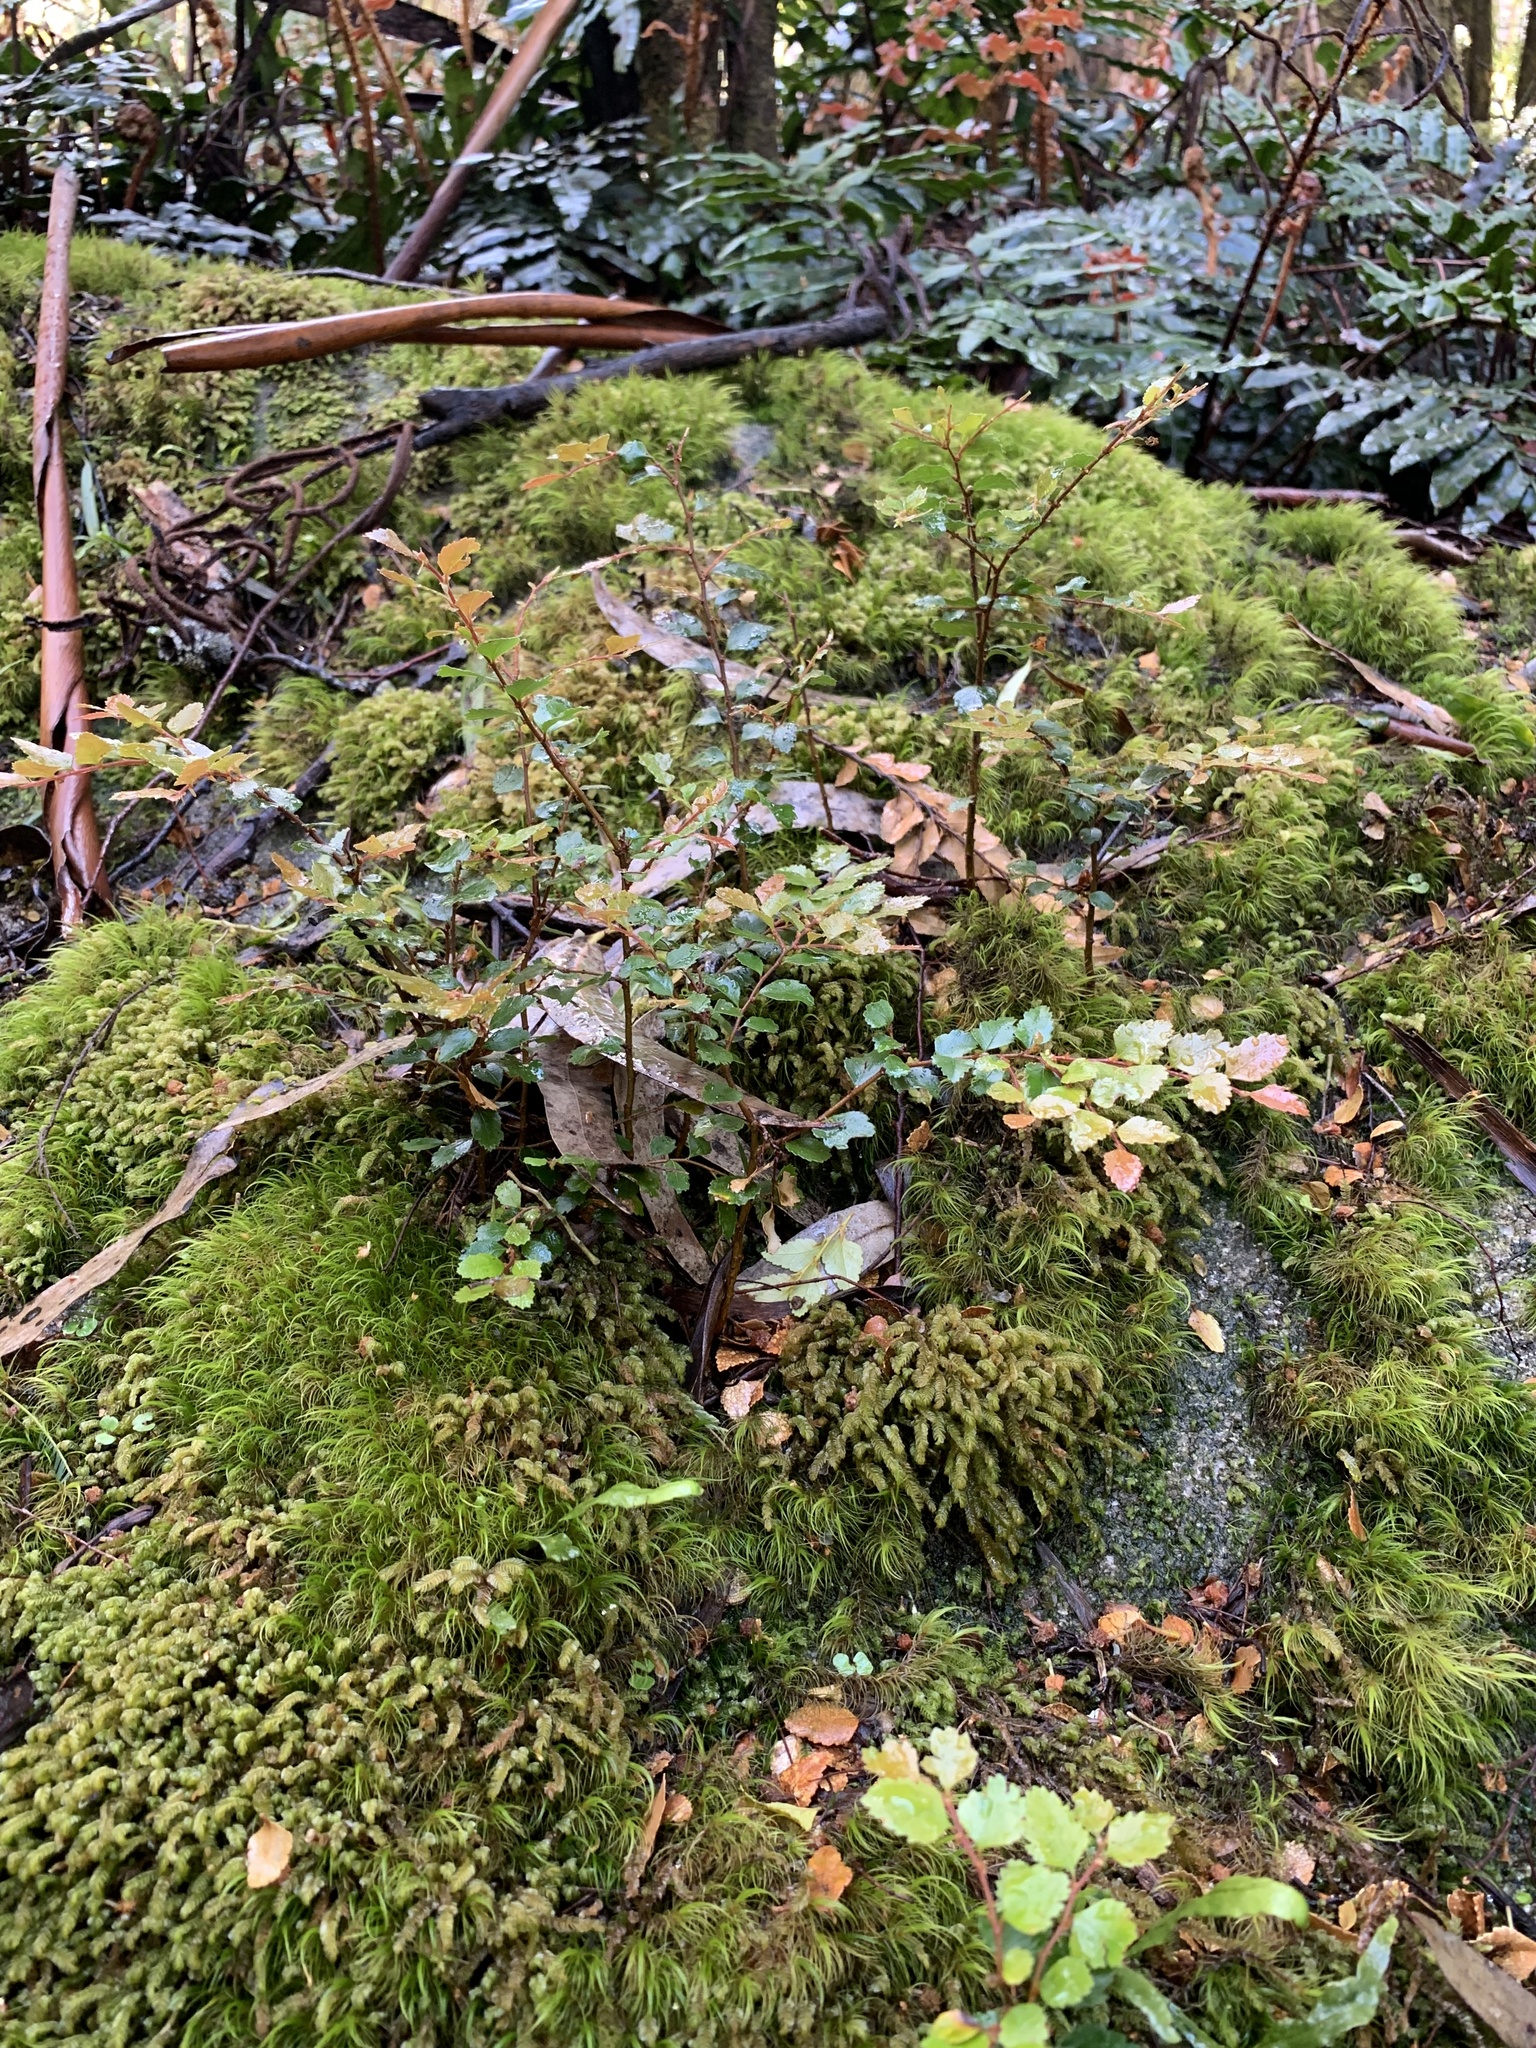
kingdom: Plantae
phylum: Tracheophyta
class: Magnoliopsida
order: Fagales
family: Nothofagaceae
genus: Nothofagus
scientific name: Nothofagus cunninghamii
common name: Myrtle beech
